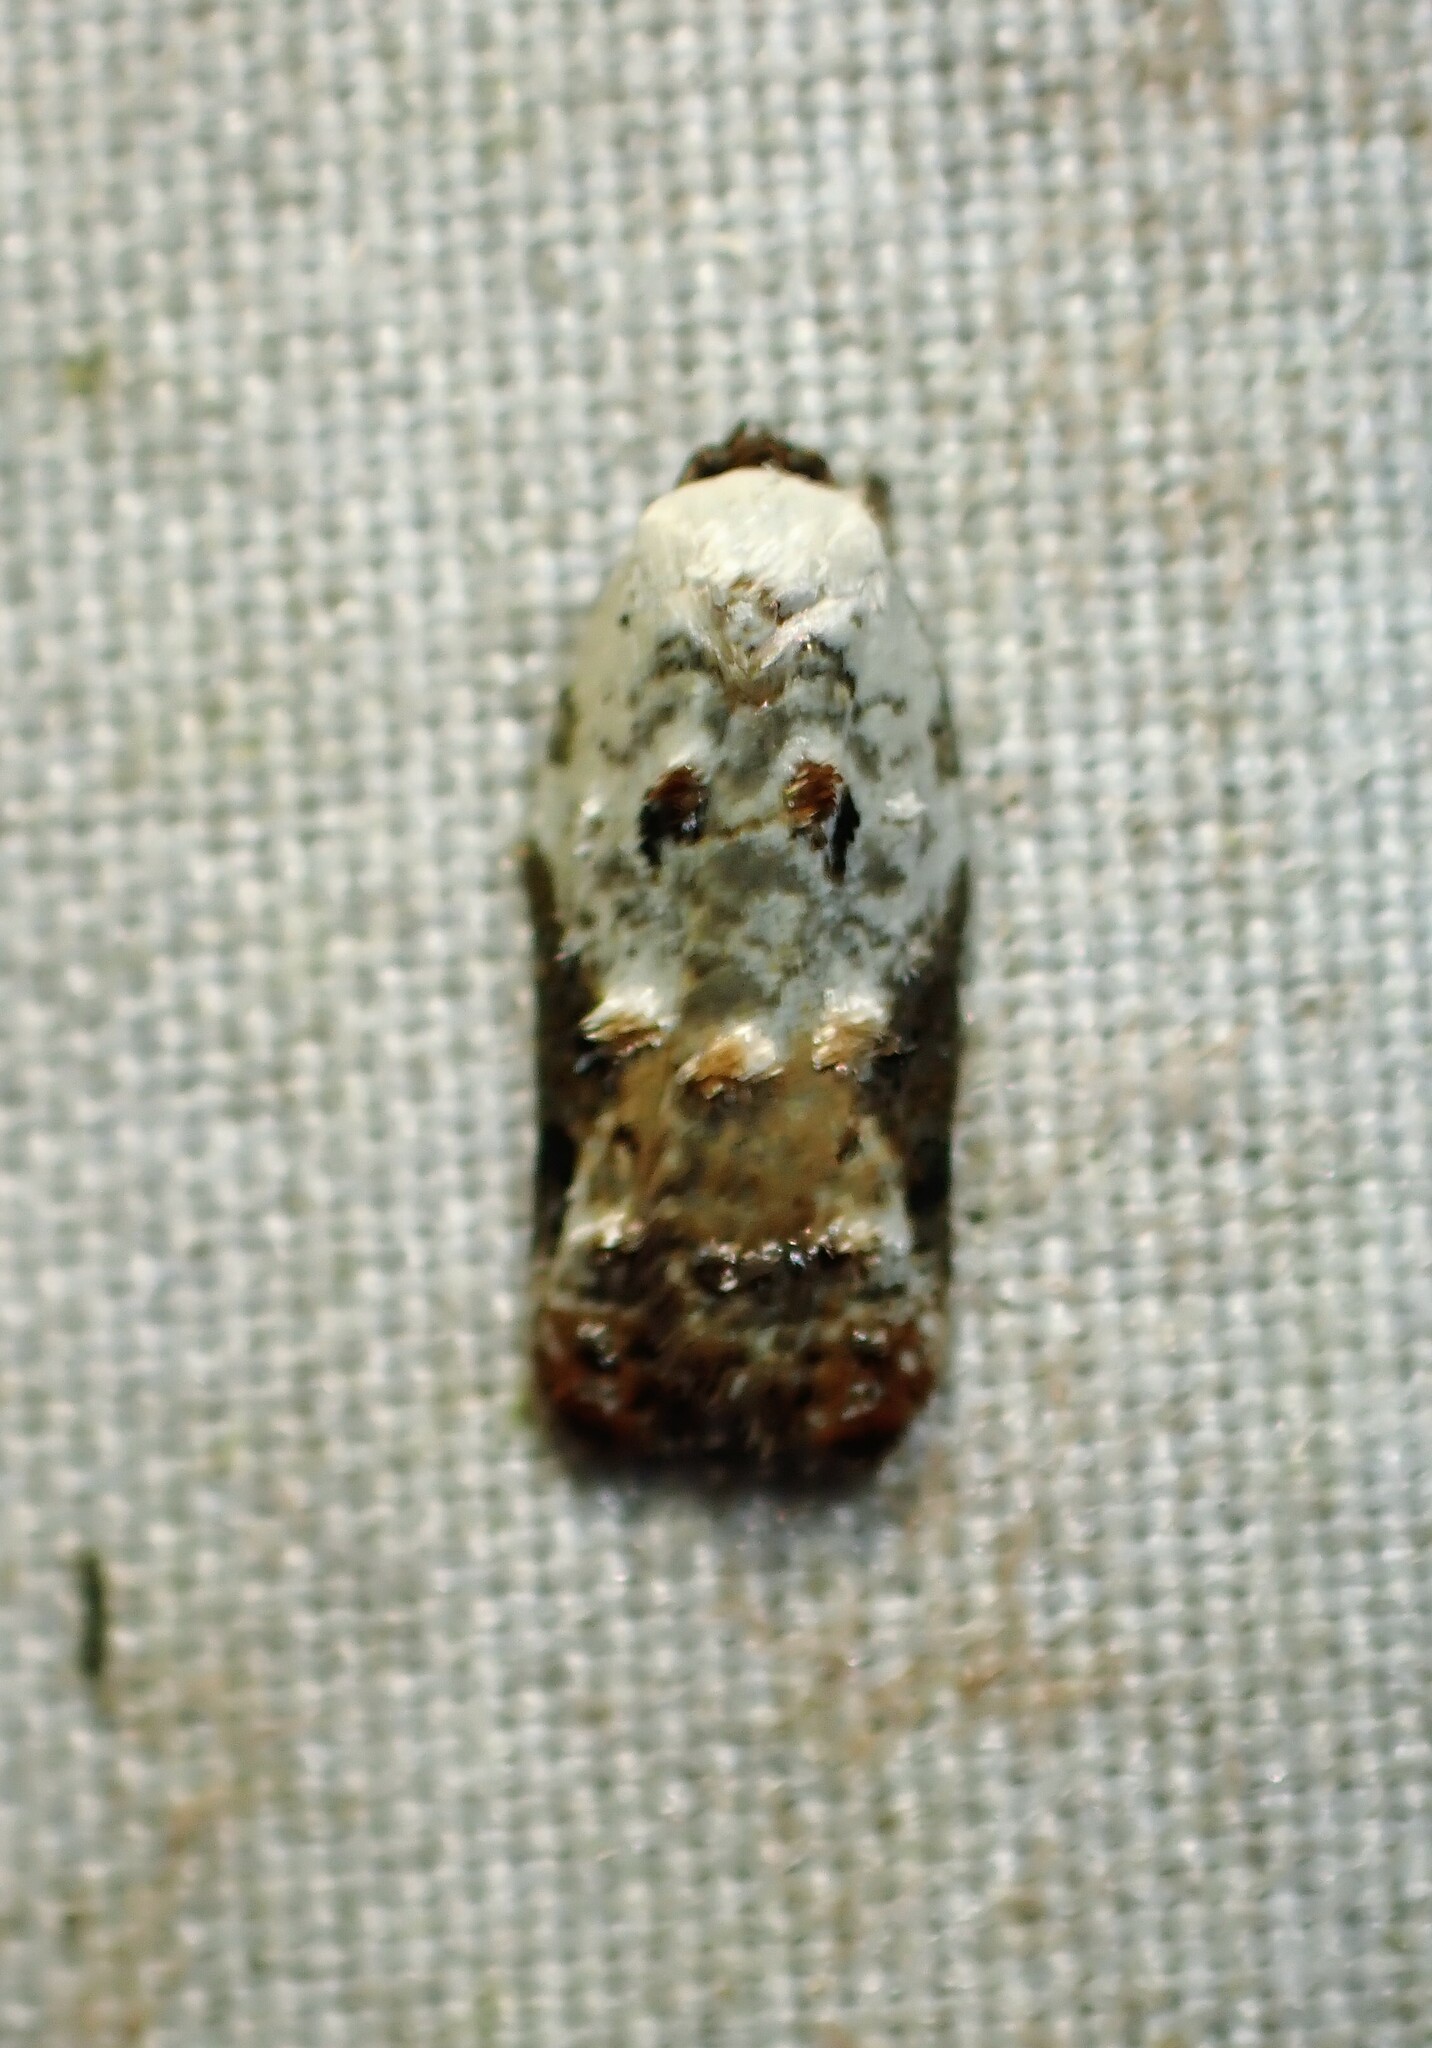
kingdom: Animalia
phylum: Arthropoda
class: Insecta
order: Lepidoptera
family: Tortricidae
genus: Acleris
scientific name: Acleris nivisellana
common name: Snowy-shouldered acleris moth
